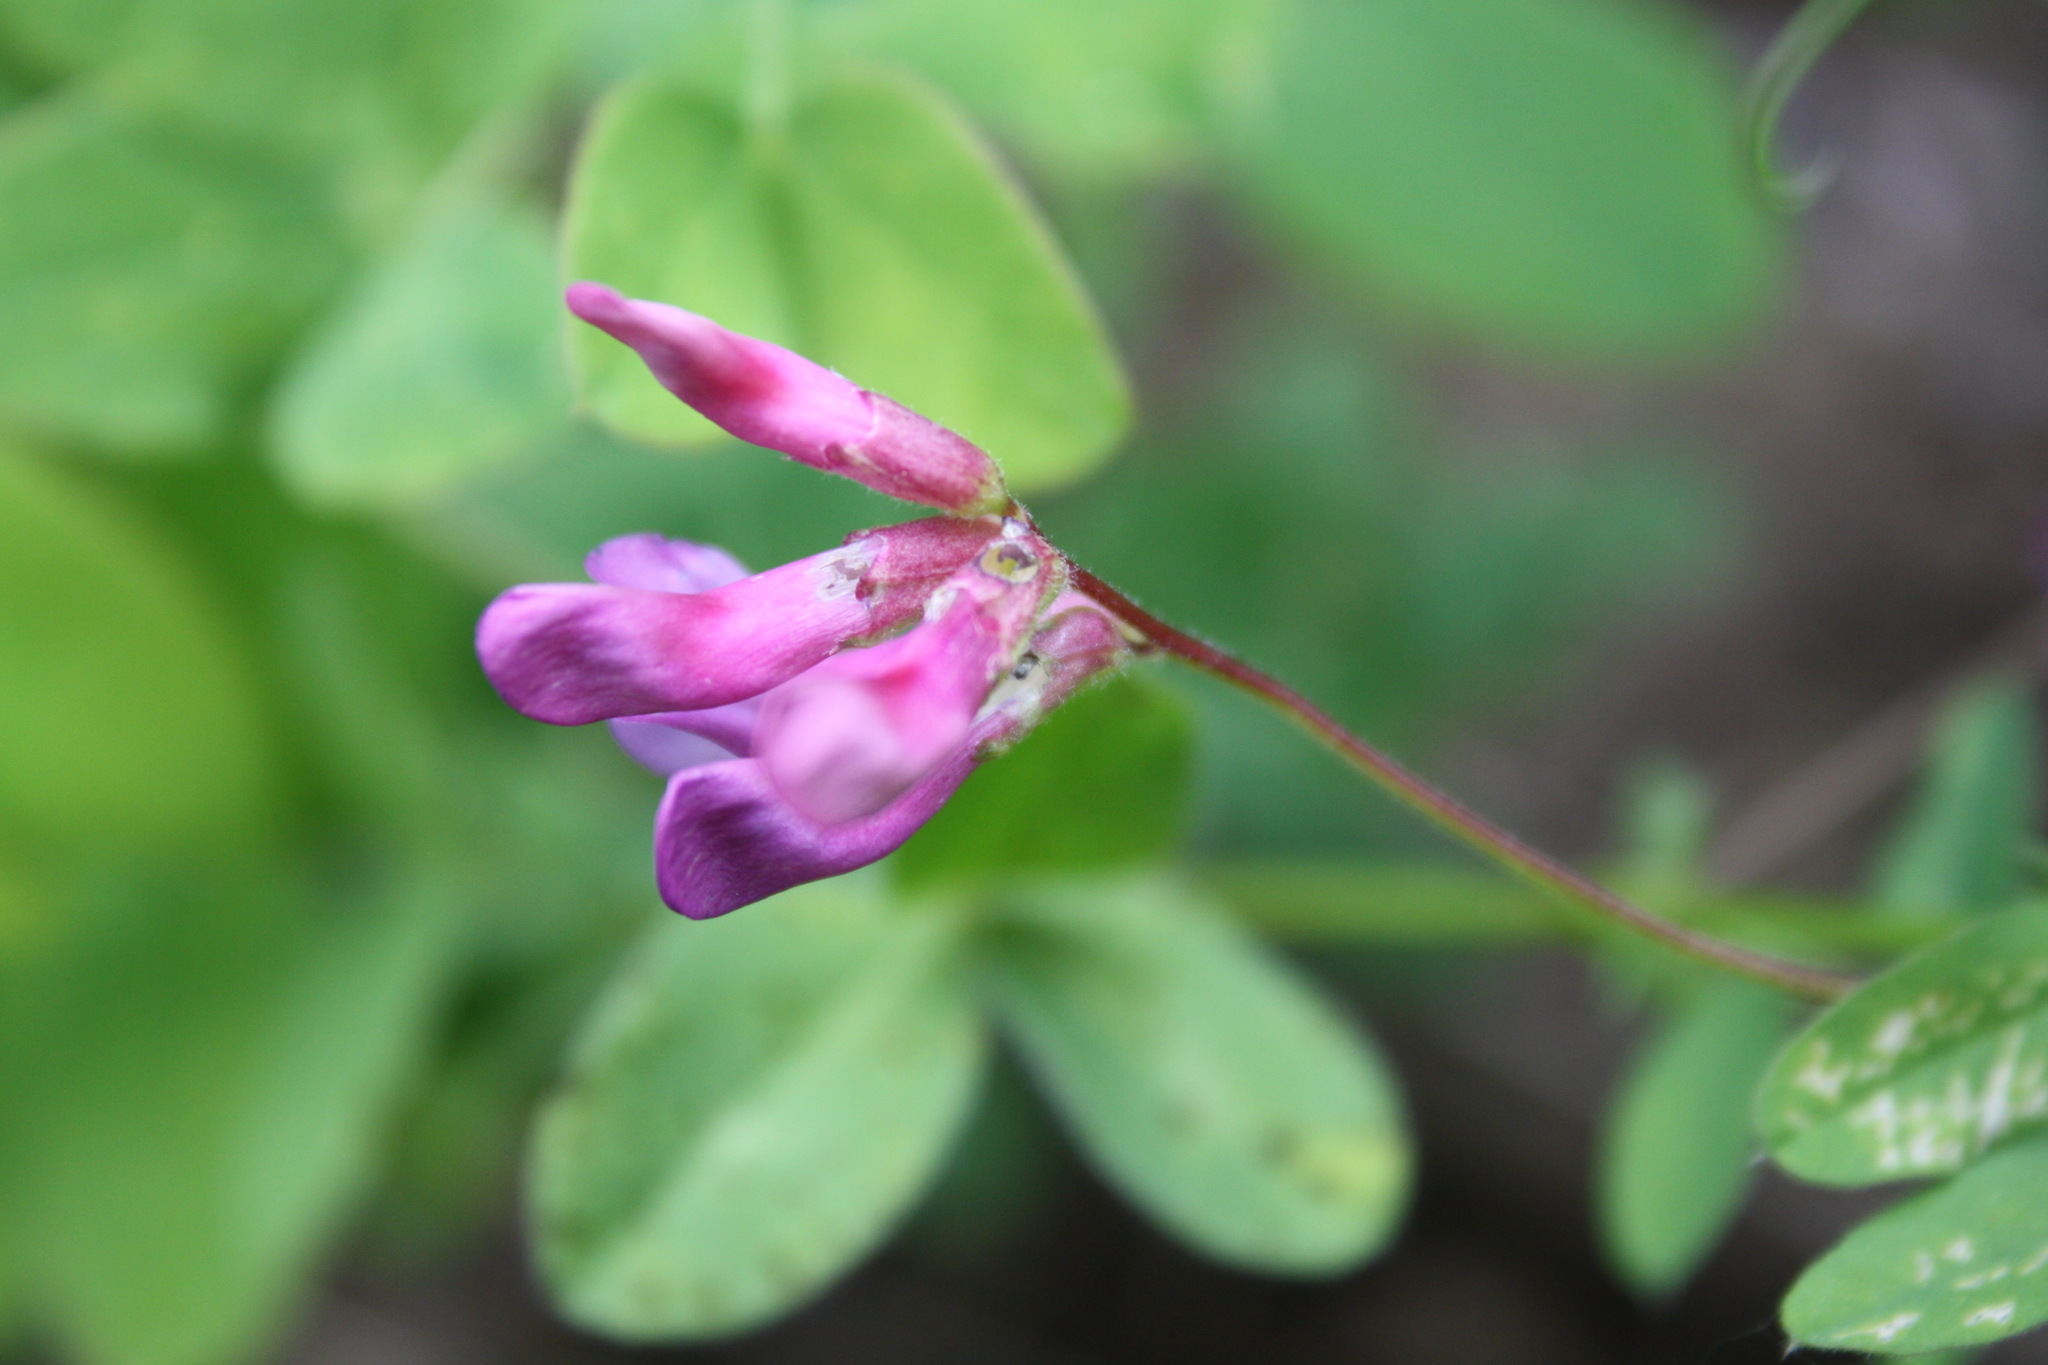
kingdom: Plantae
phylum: Tracheophyta
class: Magnoliopsida
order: Fabales
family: Fabaceae
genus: Vicia
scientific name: Vicia americana
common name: American vetch
